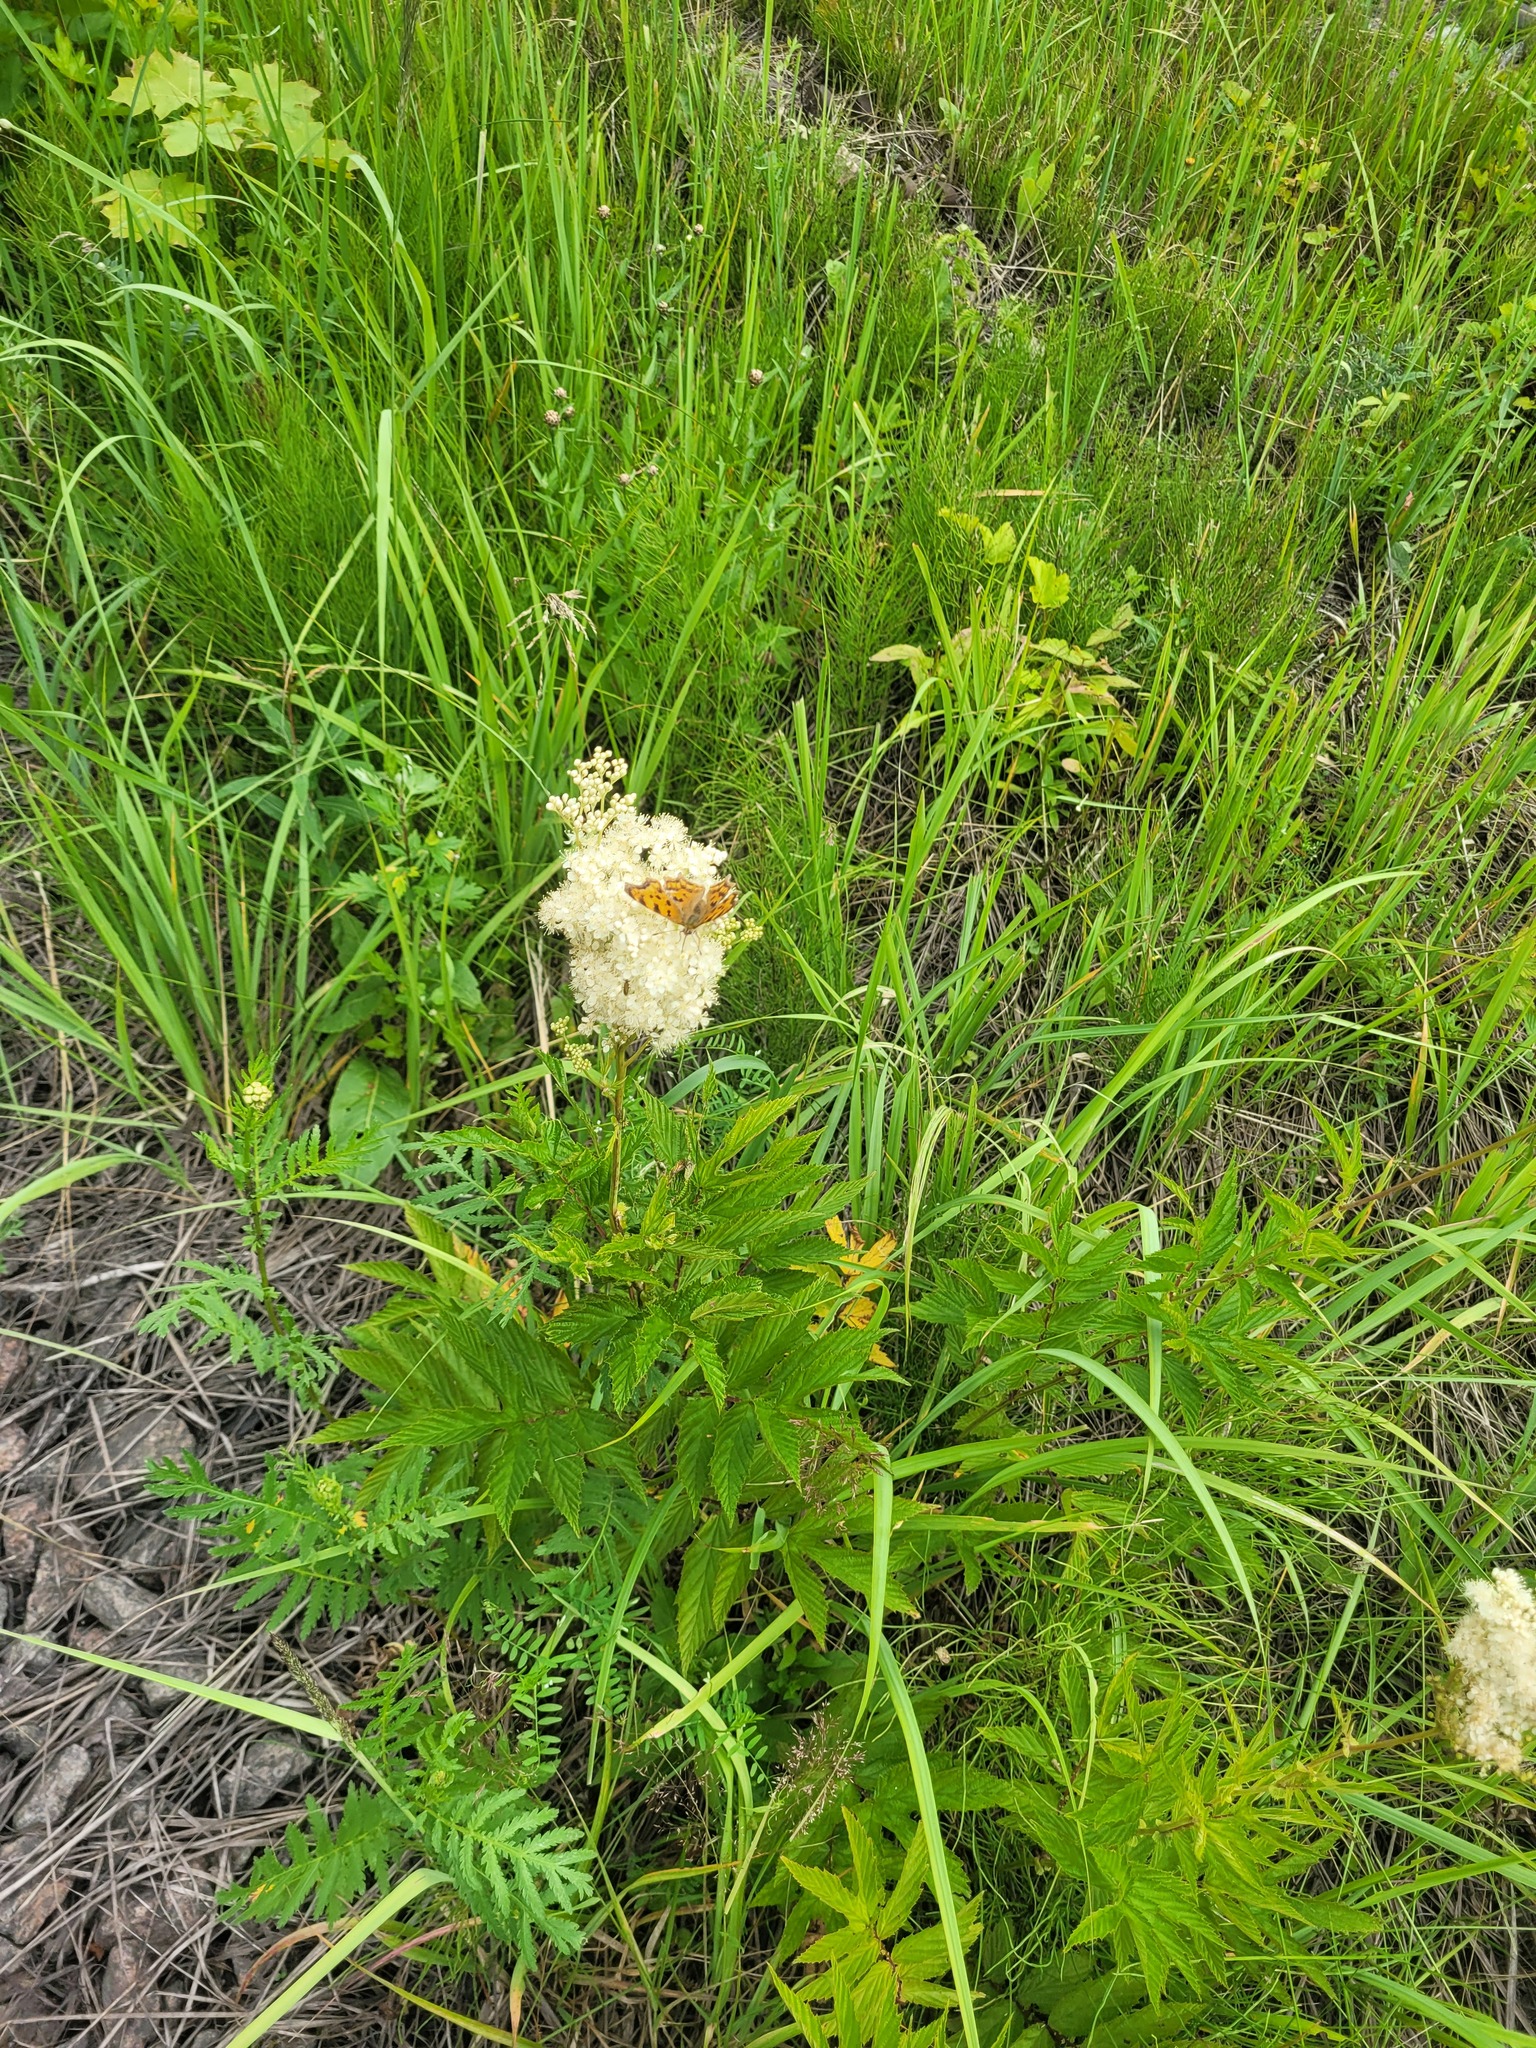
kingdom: Plantae
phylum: Tracheophyta
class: Magnoliopsida
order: Rosales
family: Rosaceae
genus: Filipendula
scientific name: Filipendula ulmaria
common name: Meadowsweet
